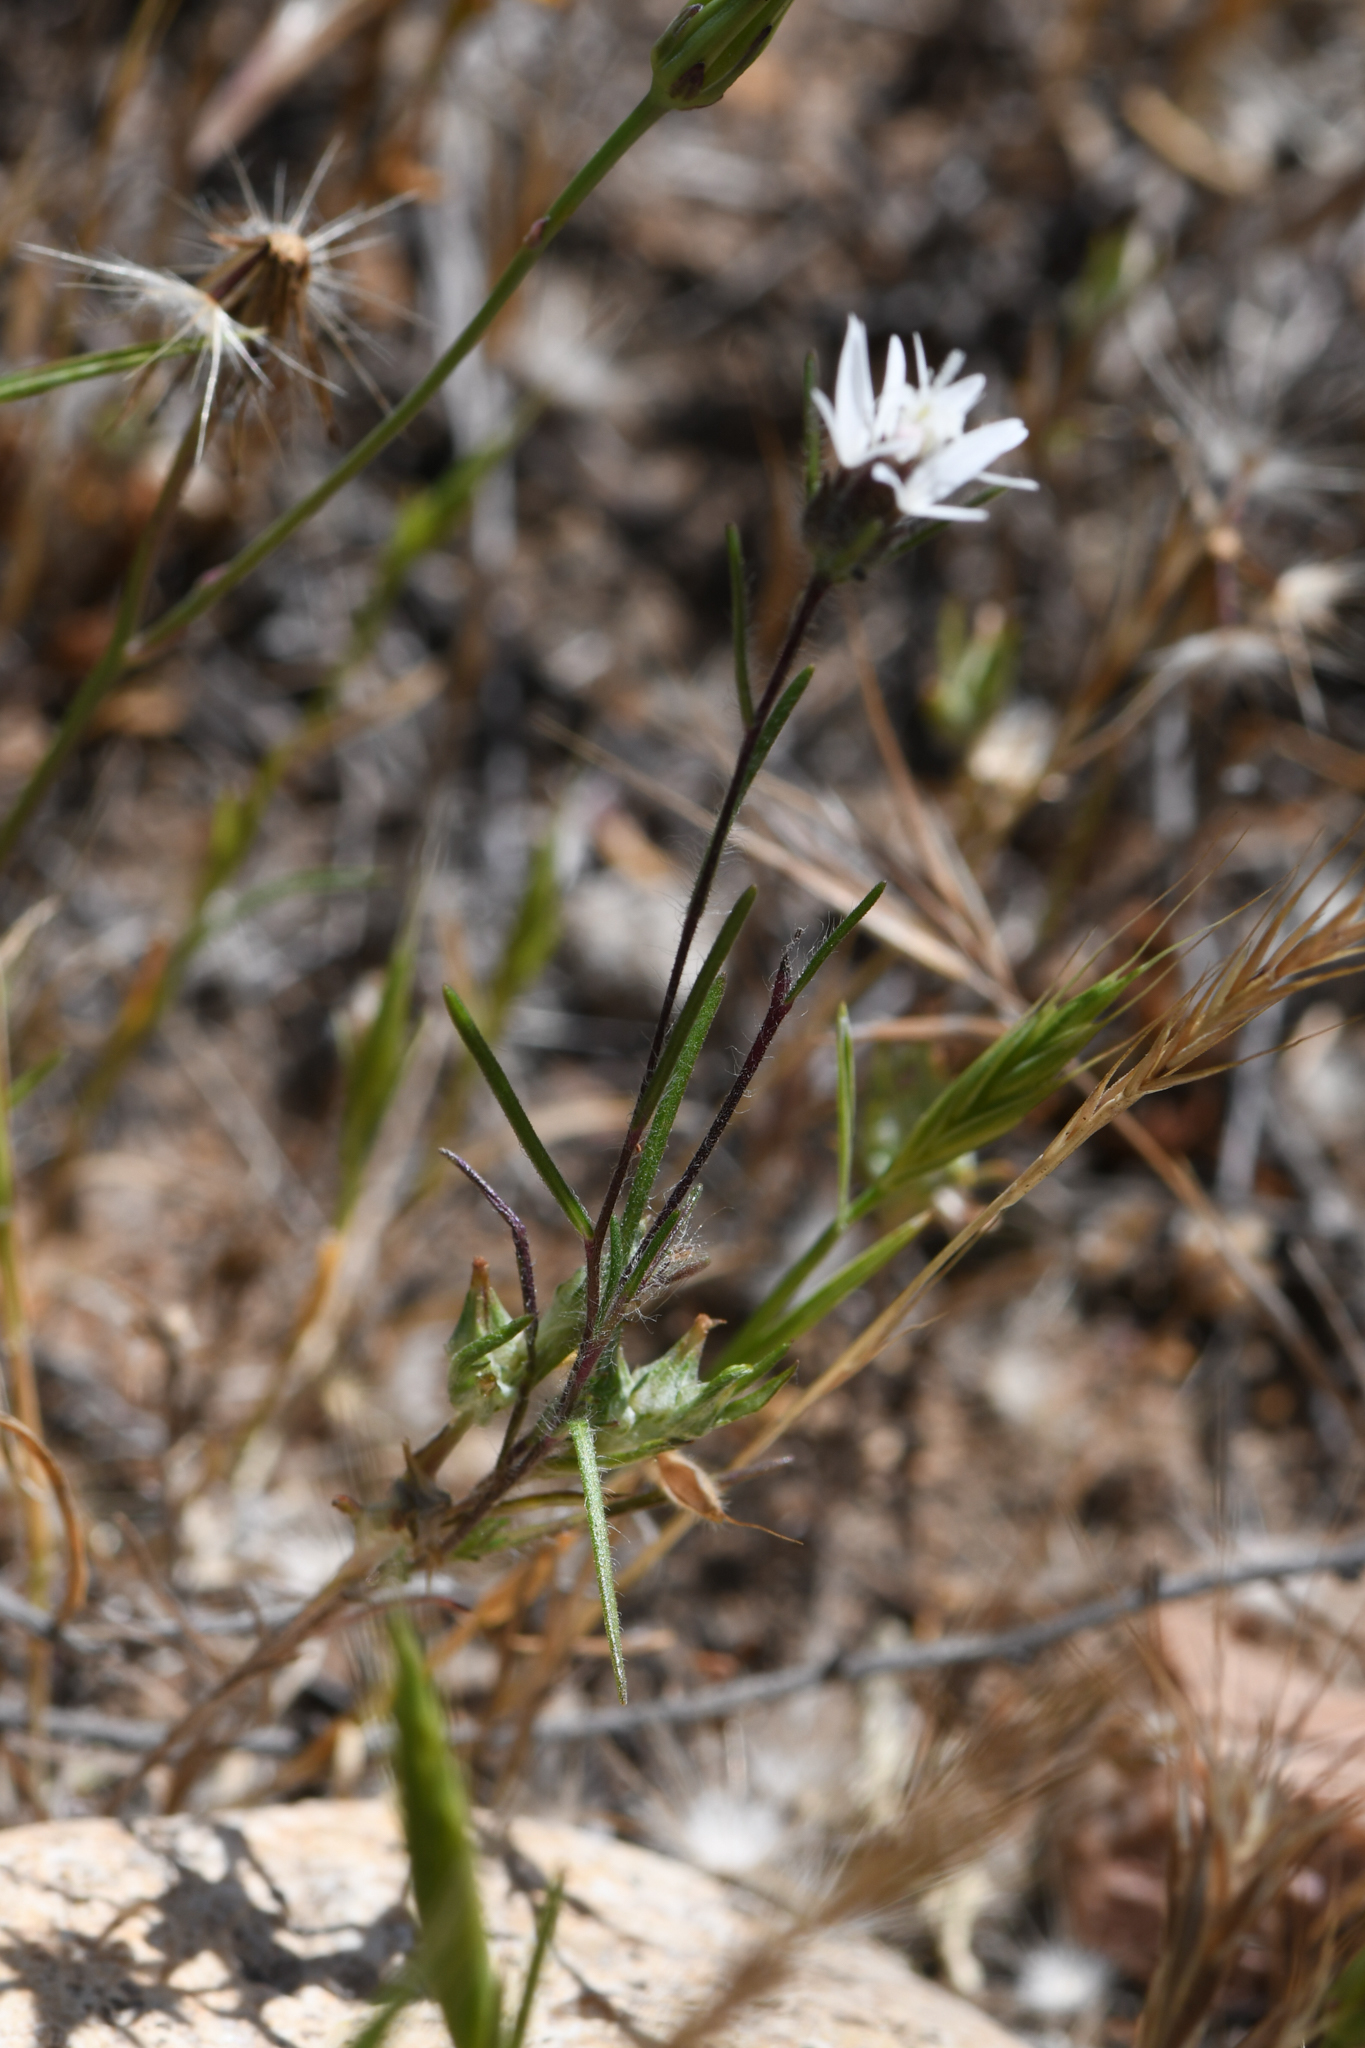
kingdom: Plantae
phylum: Tracheophyta
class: Magnoliopsida
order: Asterales
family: Asteraceae
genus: Osmadenia
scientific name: Osmadenia tenella
